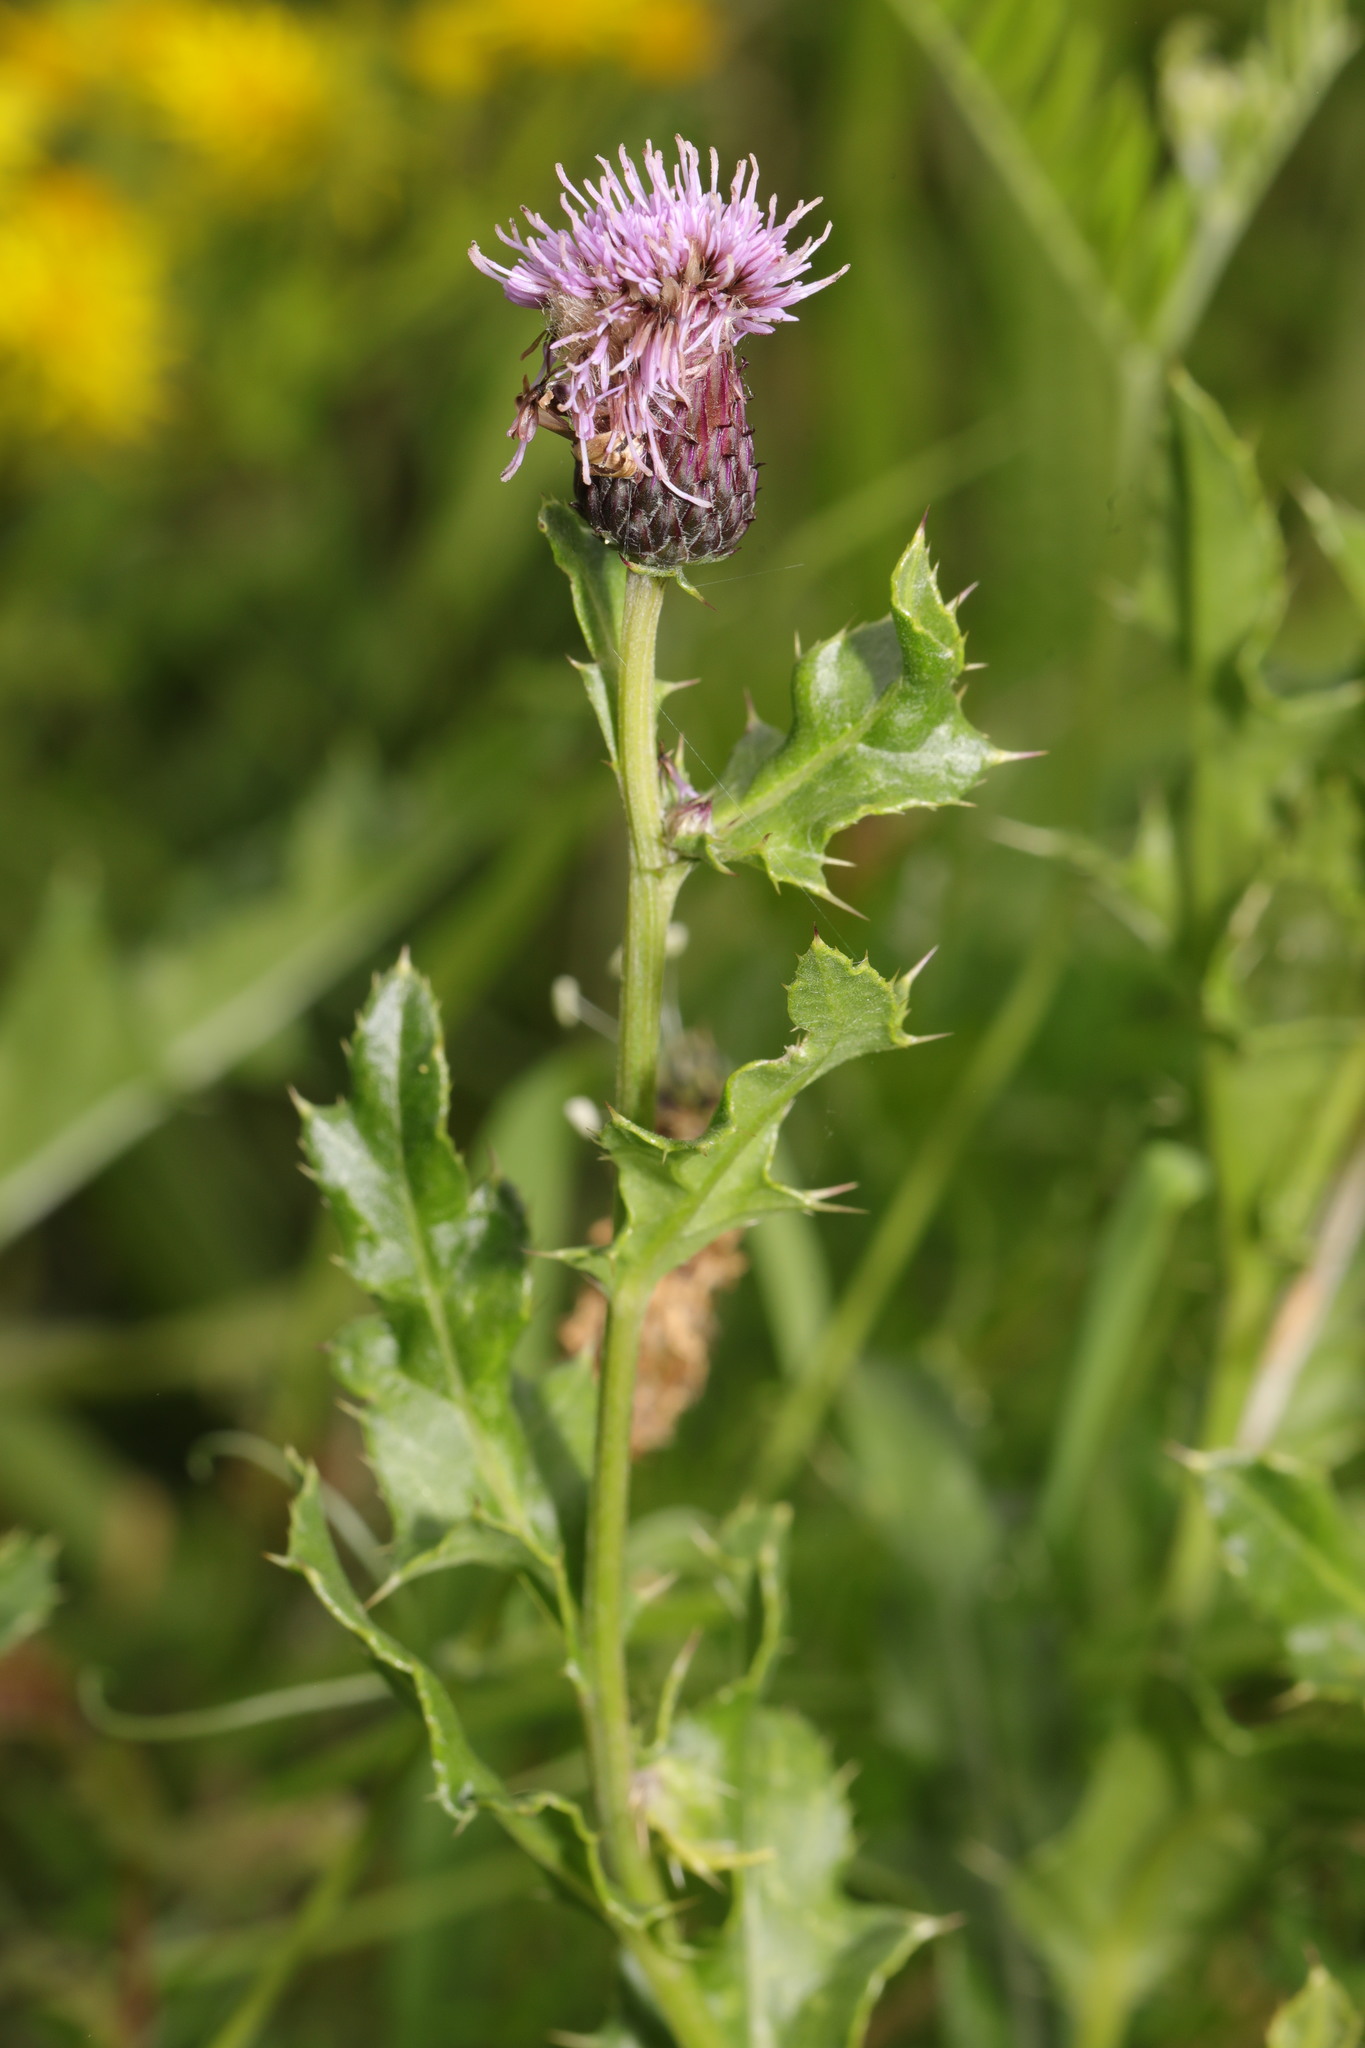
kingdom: Plantae
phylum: Tracheophyta
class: Magnoliopsida
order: Asterales
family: Asteraceae
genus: Cirsium
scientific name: Cirsium arvense
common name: Creeping thistle
